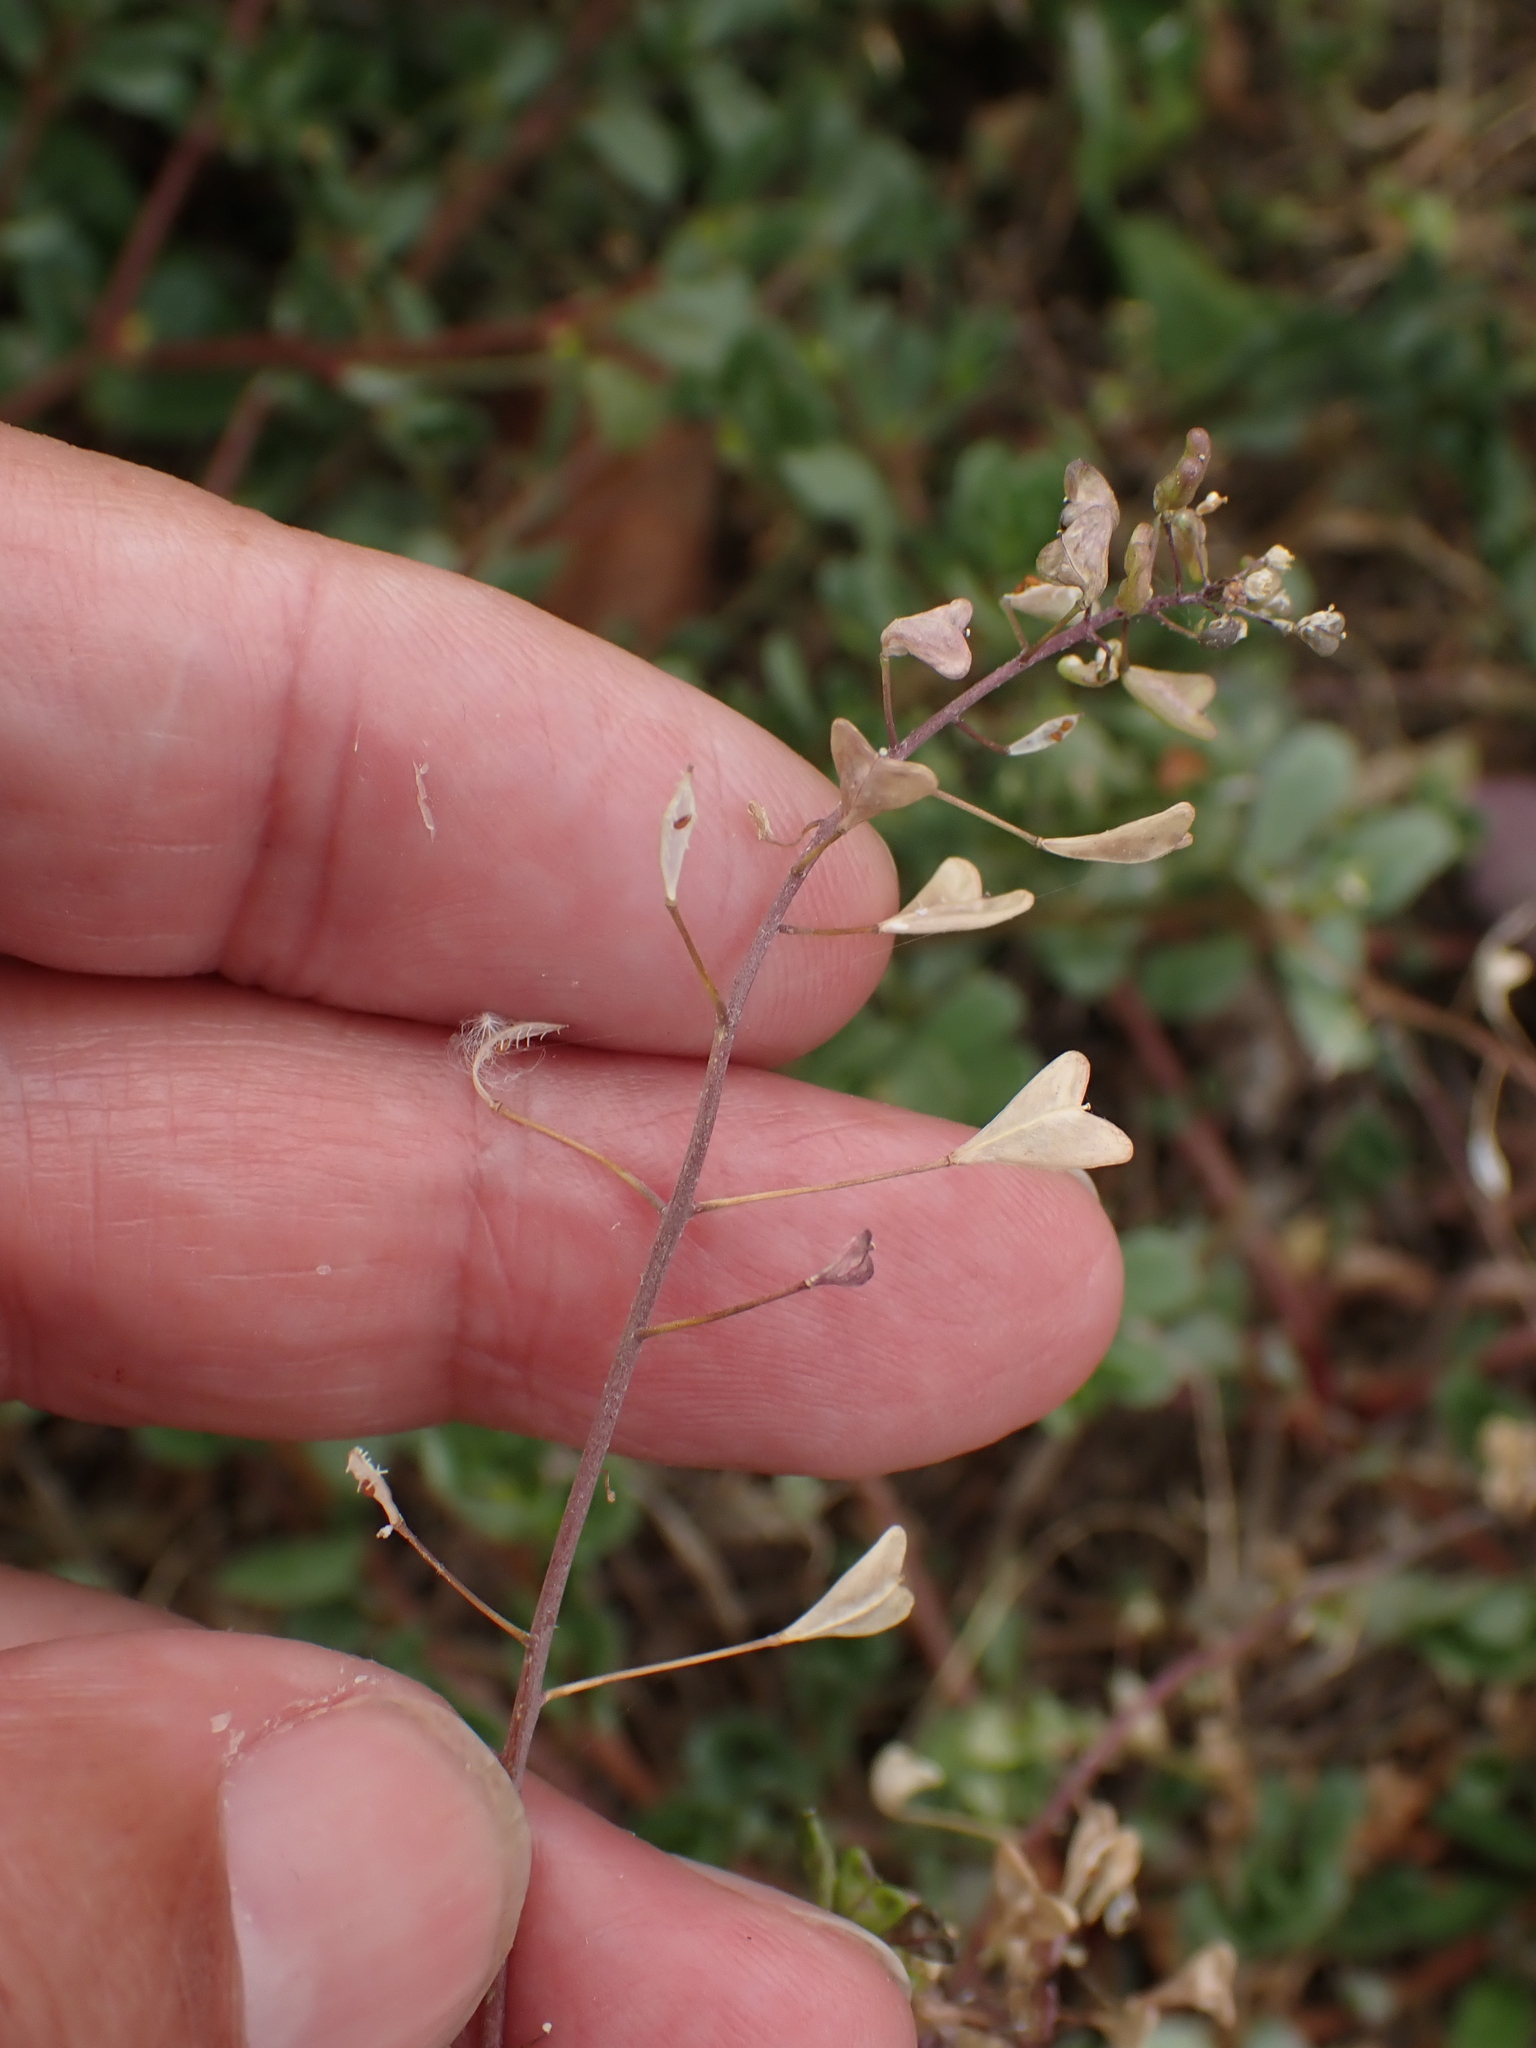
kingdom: Plantae
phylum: Tracheophyta
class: Magnoliopsida
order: Brassicales
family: Brassicaceae
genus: Capsella
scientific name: Capsella bursa-pastoris
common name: Shepherd's purse
